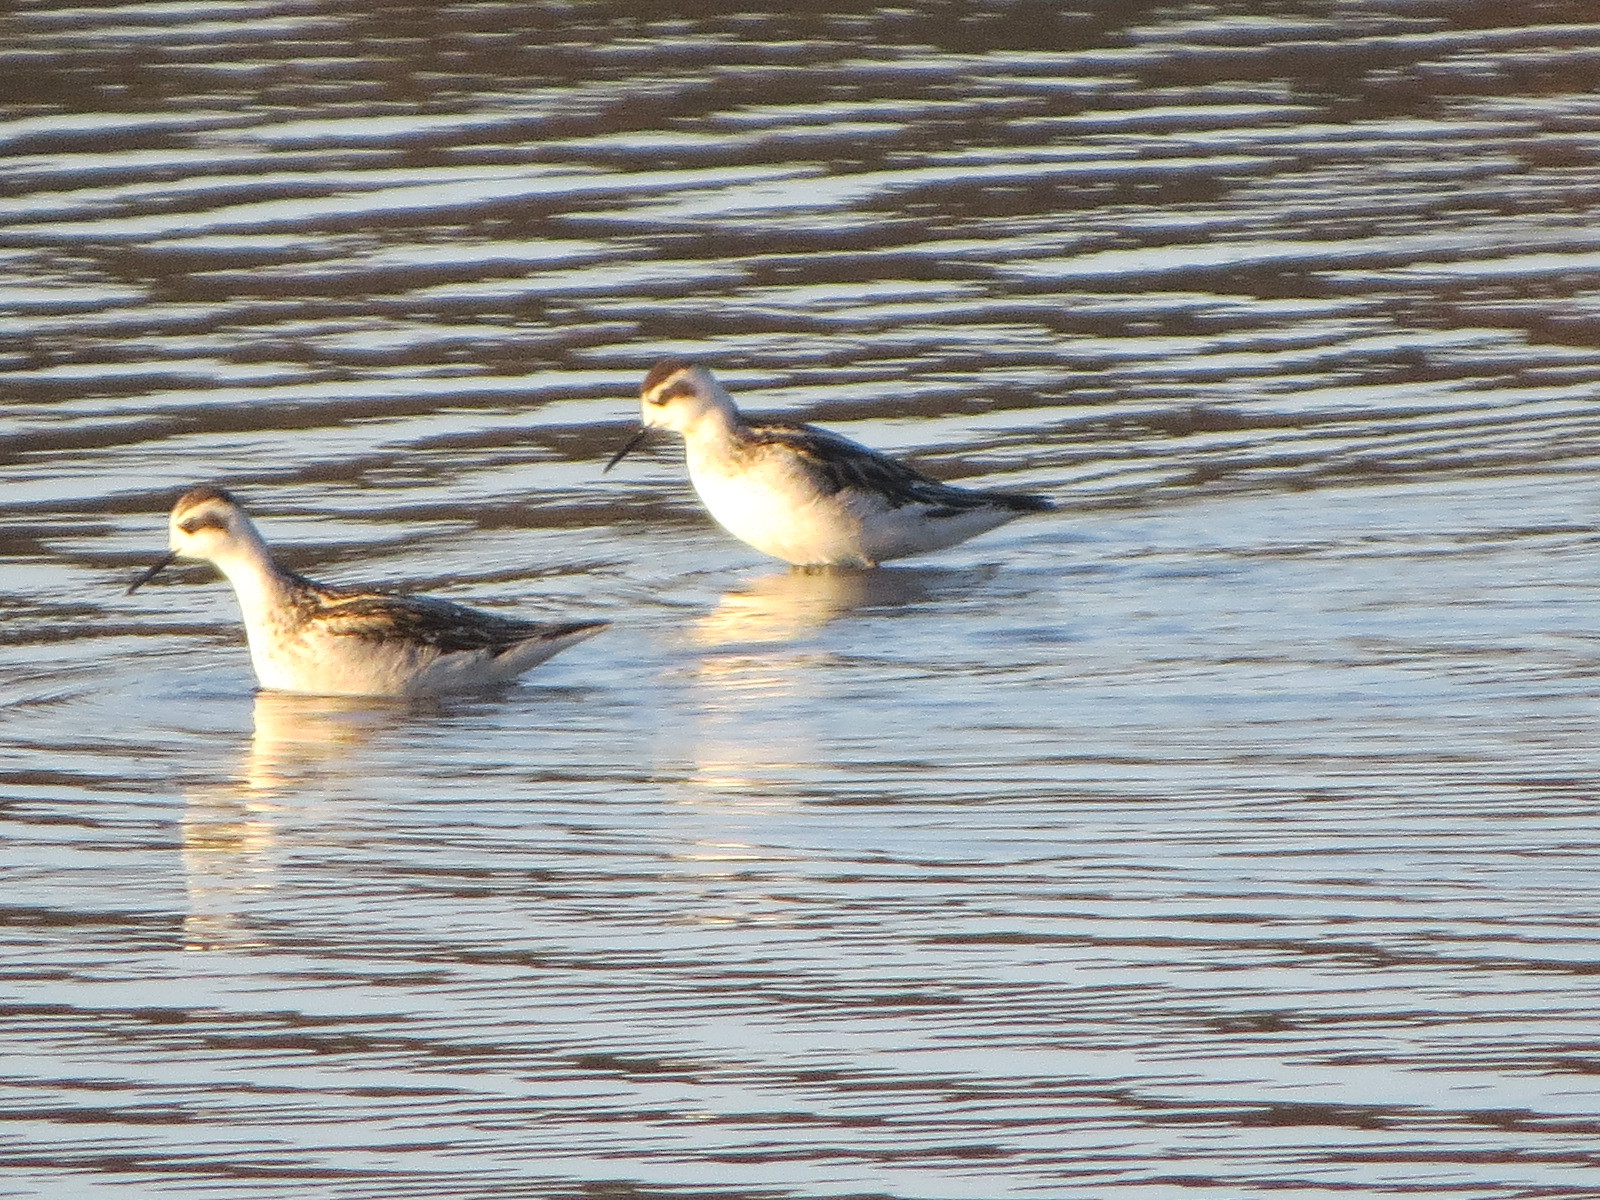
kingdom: Animalia
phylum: Chordata
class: Aves
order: Charadriiformes
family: Scolopacidae
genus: Phalaropus
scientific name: Phalaropus lobatus
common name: Red-necked phalarope
